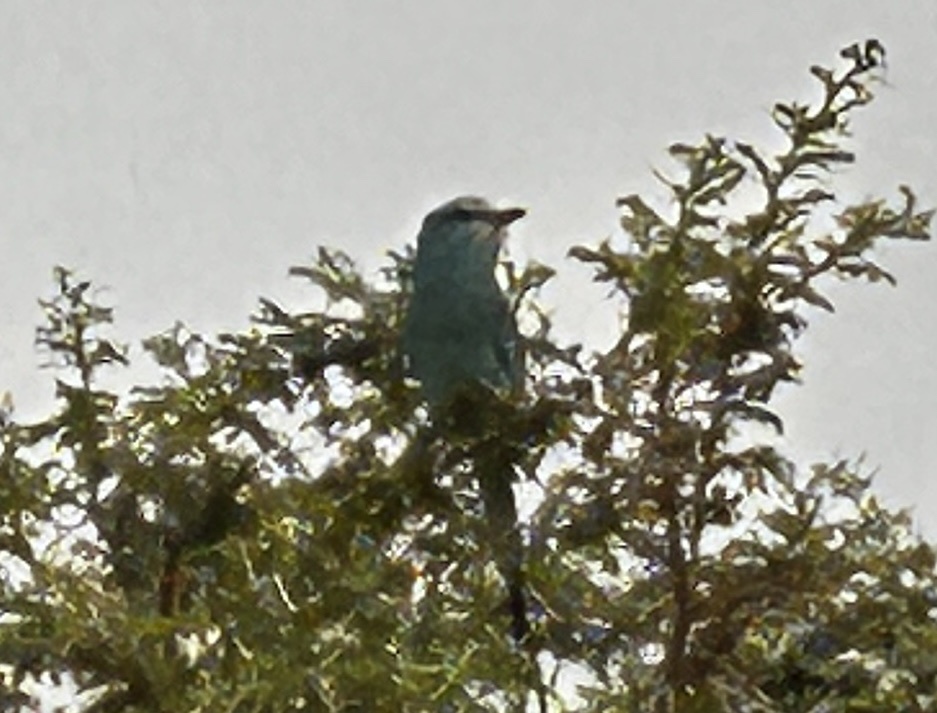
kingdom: Animalia
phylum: Chordata
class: Aves
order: Coraciiformes
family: Coraciidae
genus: Coracias
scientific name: Coracias abyssinicus
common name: Abyssinian roller
